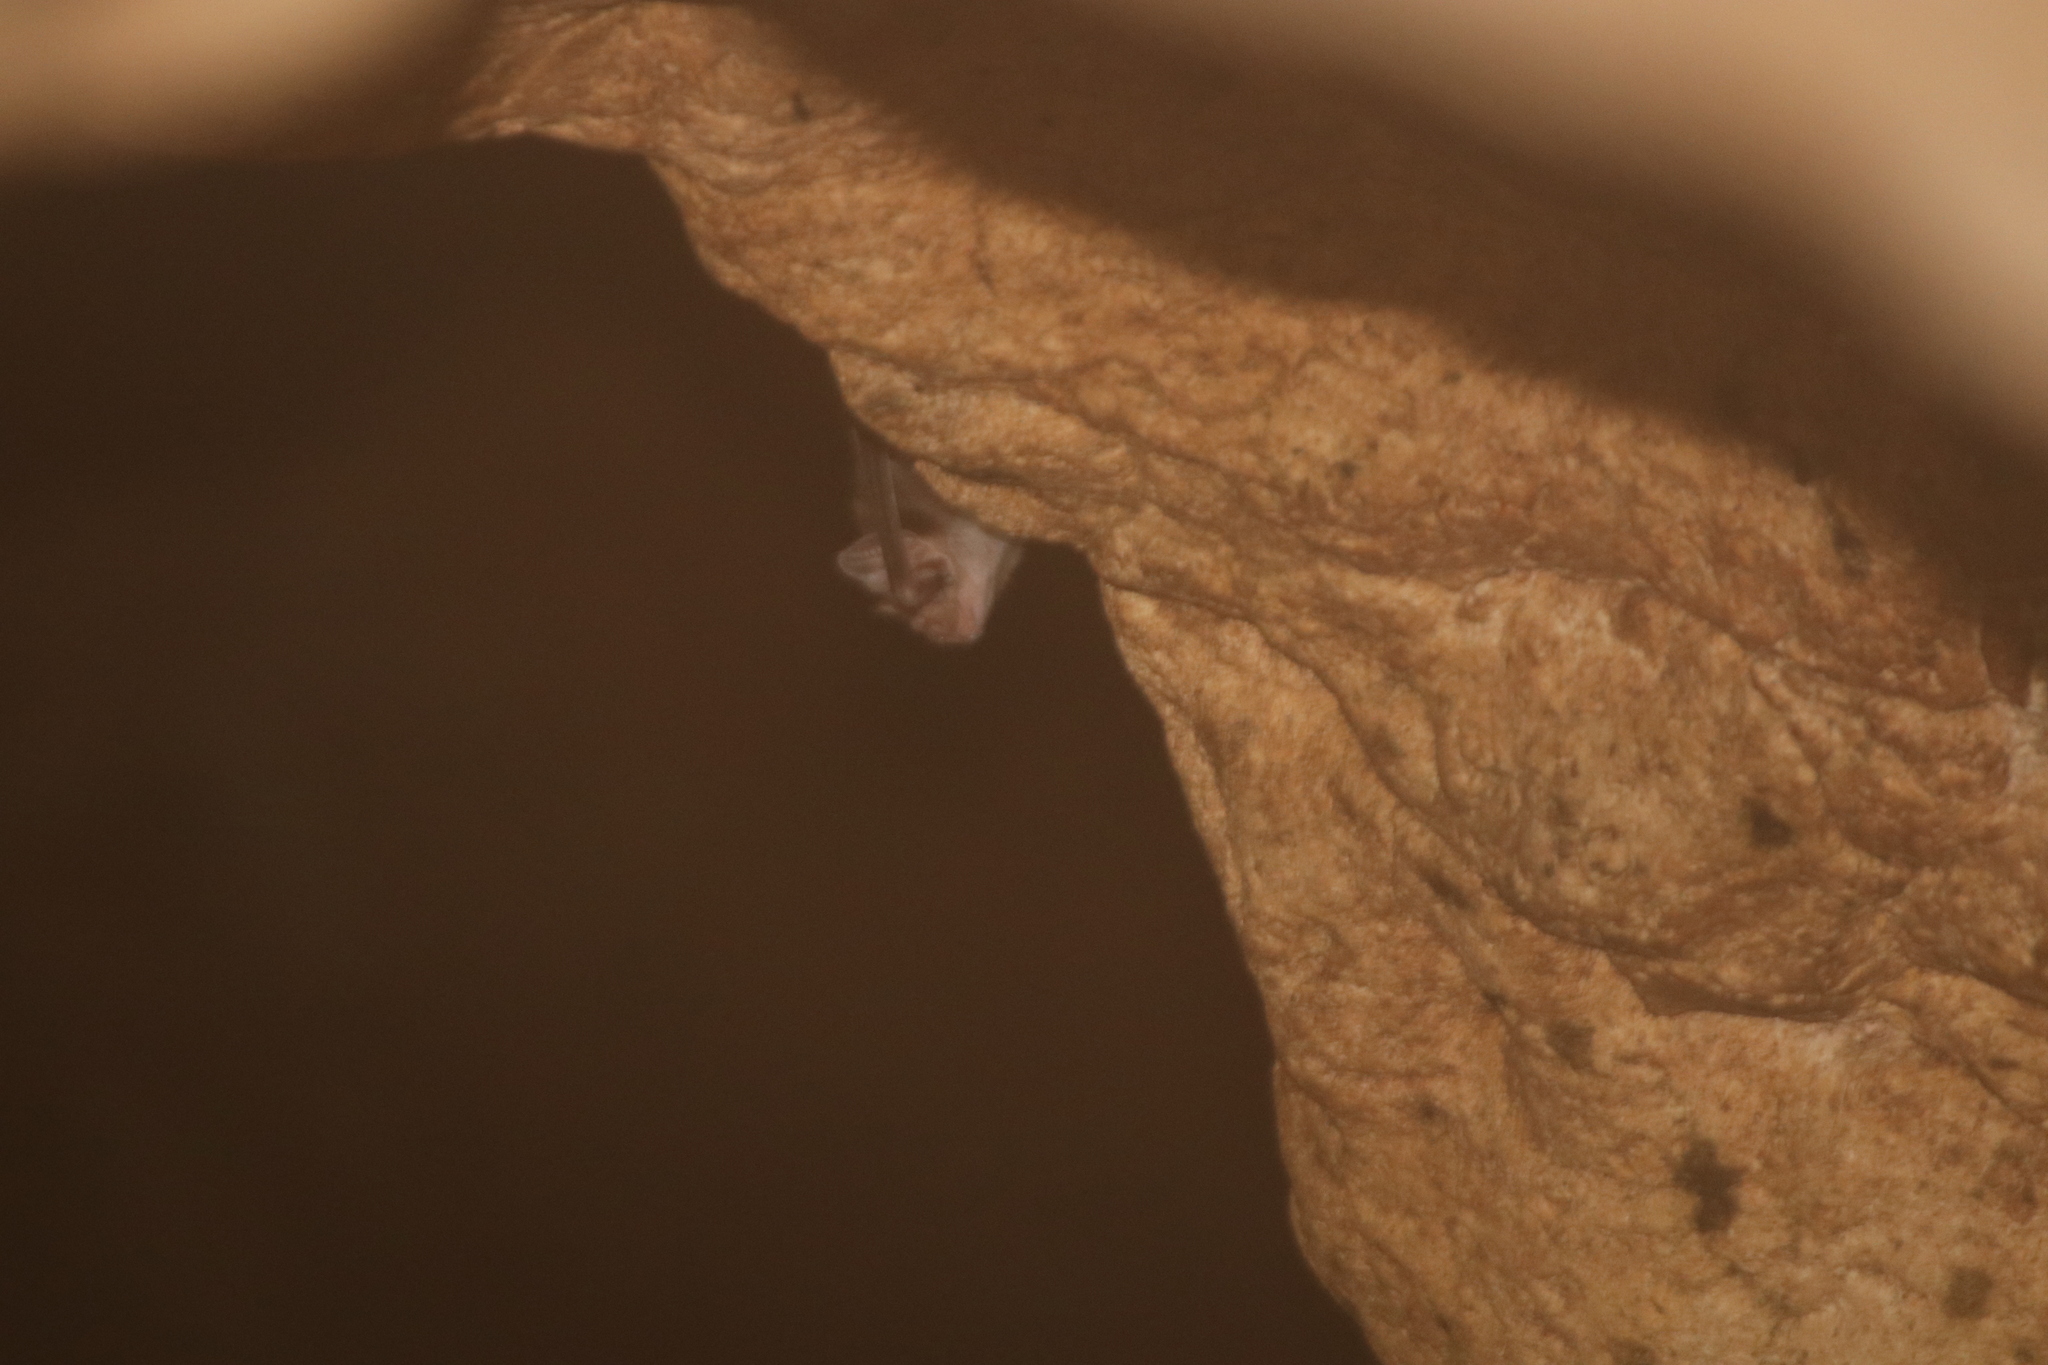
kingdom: Animalia
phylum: Chordata
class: Mammalia
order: Chiroptera
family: Phyllostomidae
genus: Desmodus
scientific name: Desmodus rotundus
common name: Common vampire bat
